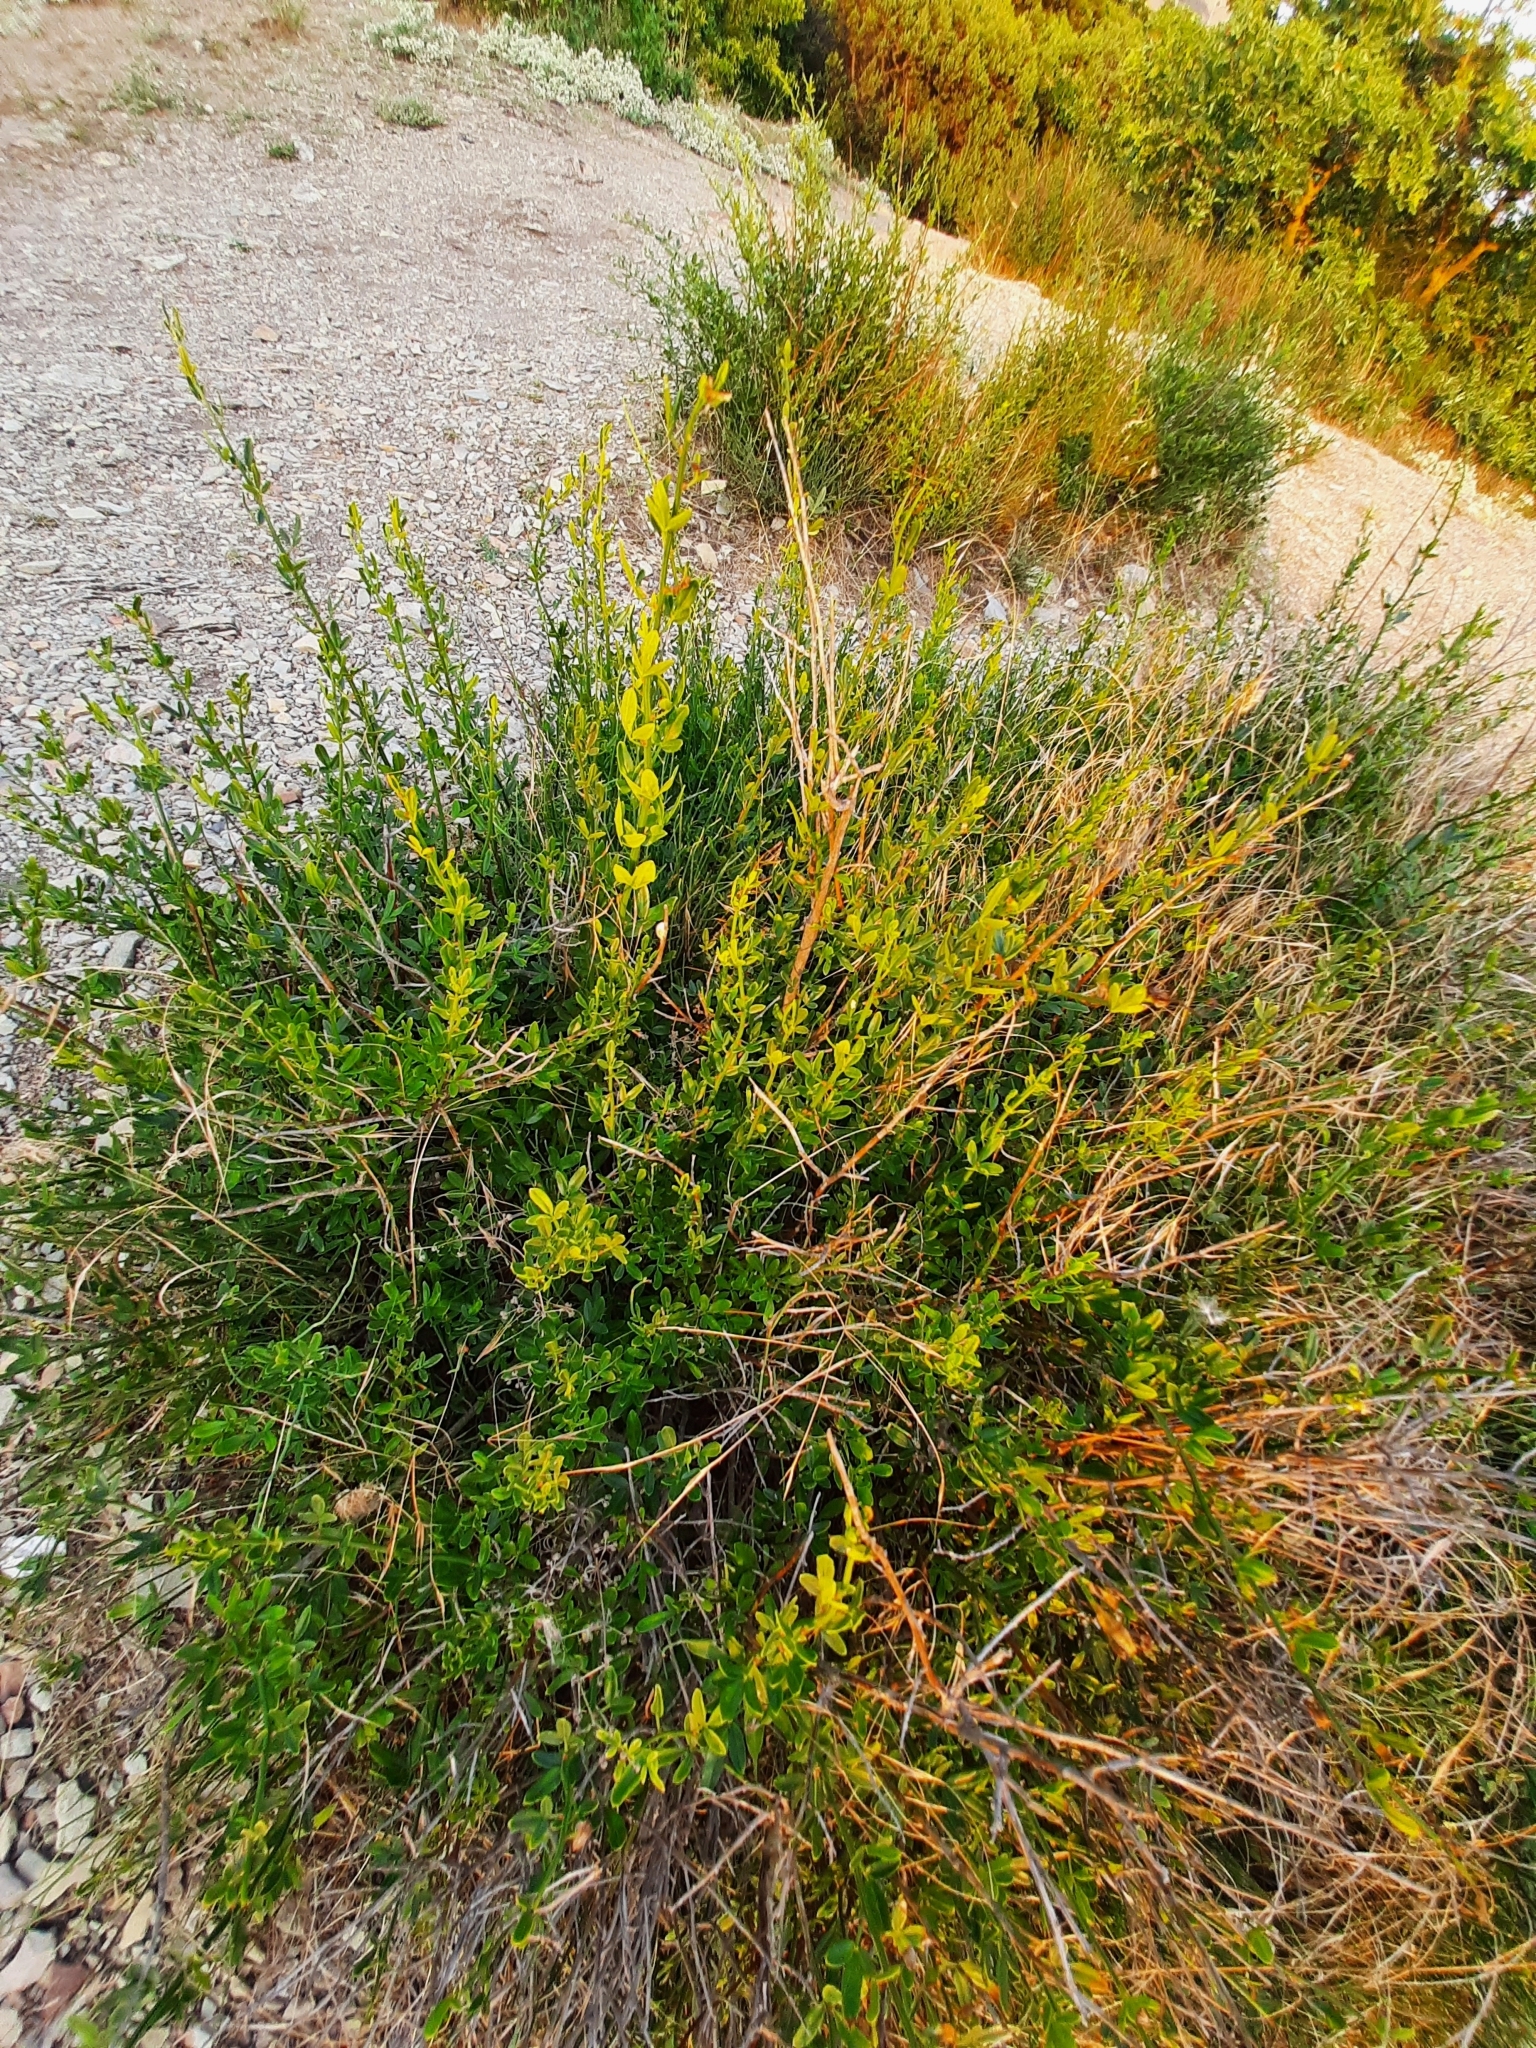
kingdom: Plantae
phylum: Tracheophyta
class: Magnoliopsida
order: Lamiales
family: Oleaceae
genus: Chrysojasminum
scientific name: Chrysojasminum fruticans
